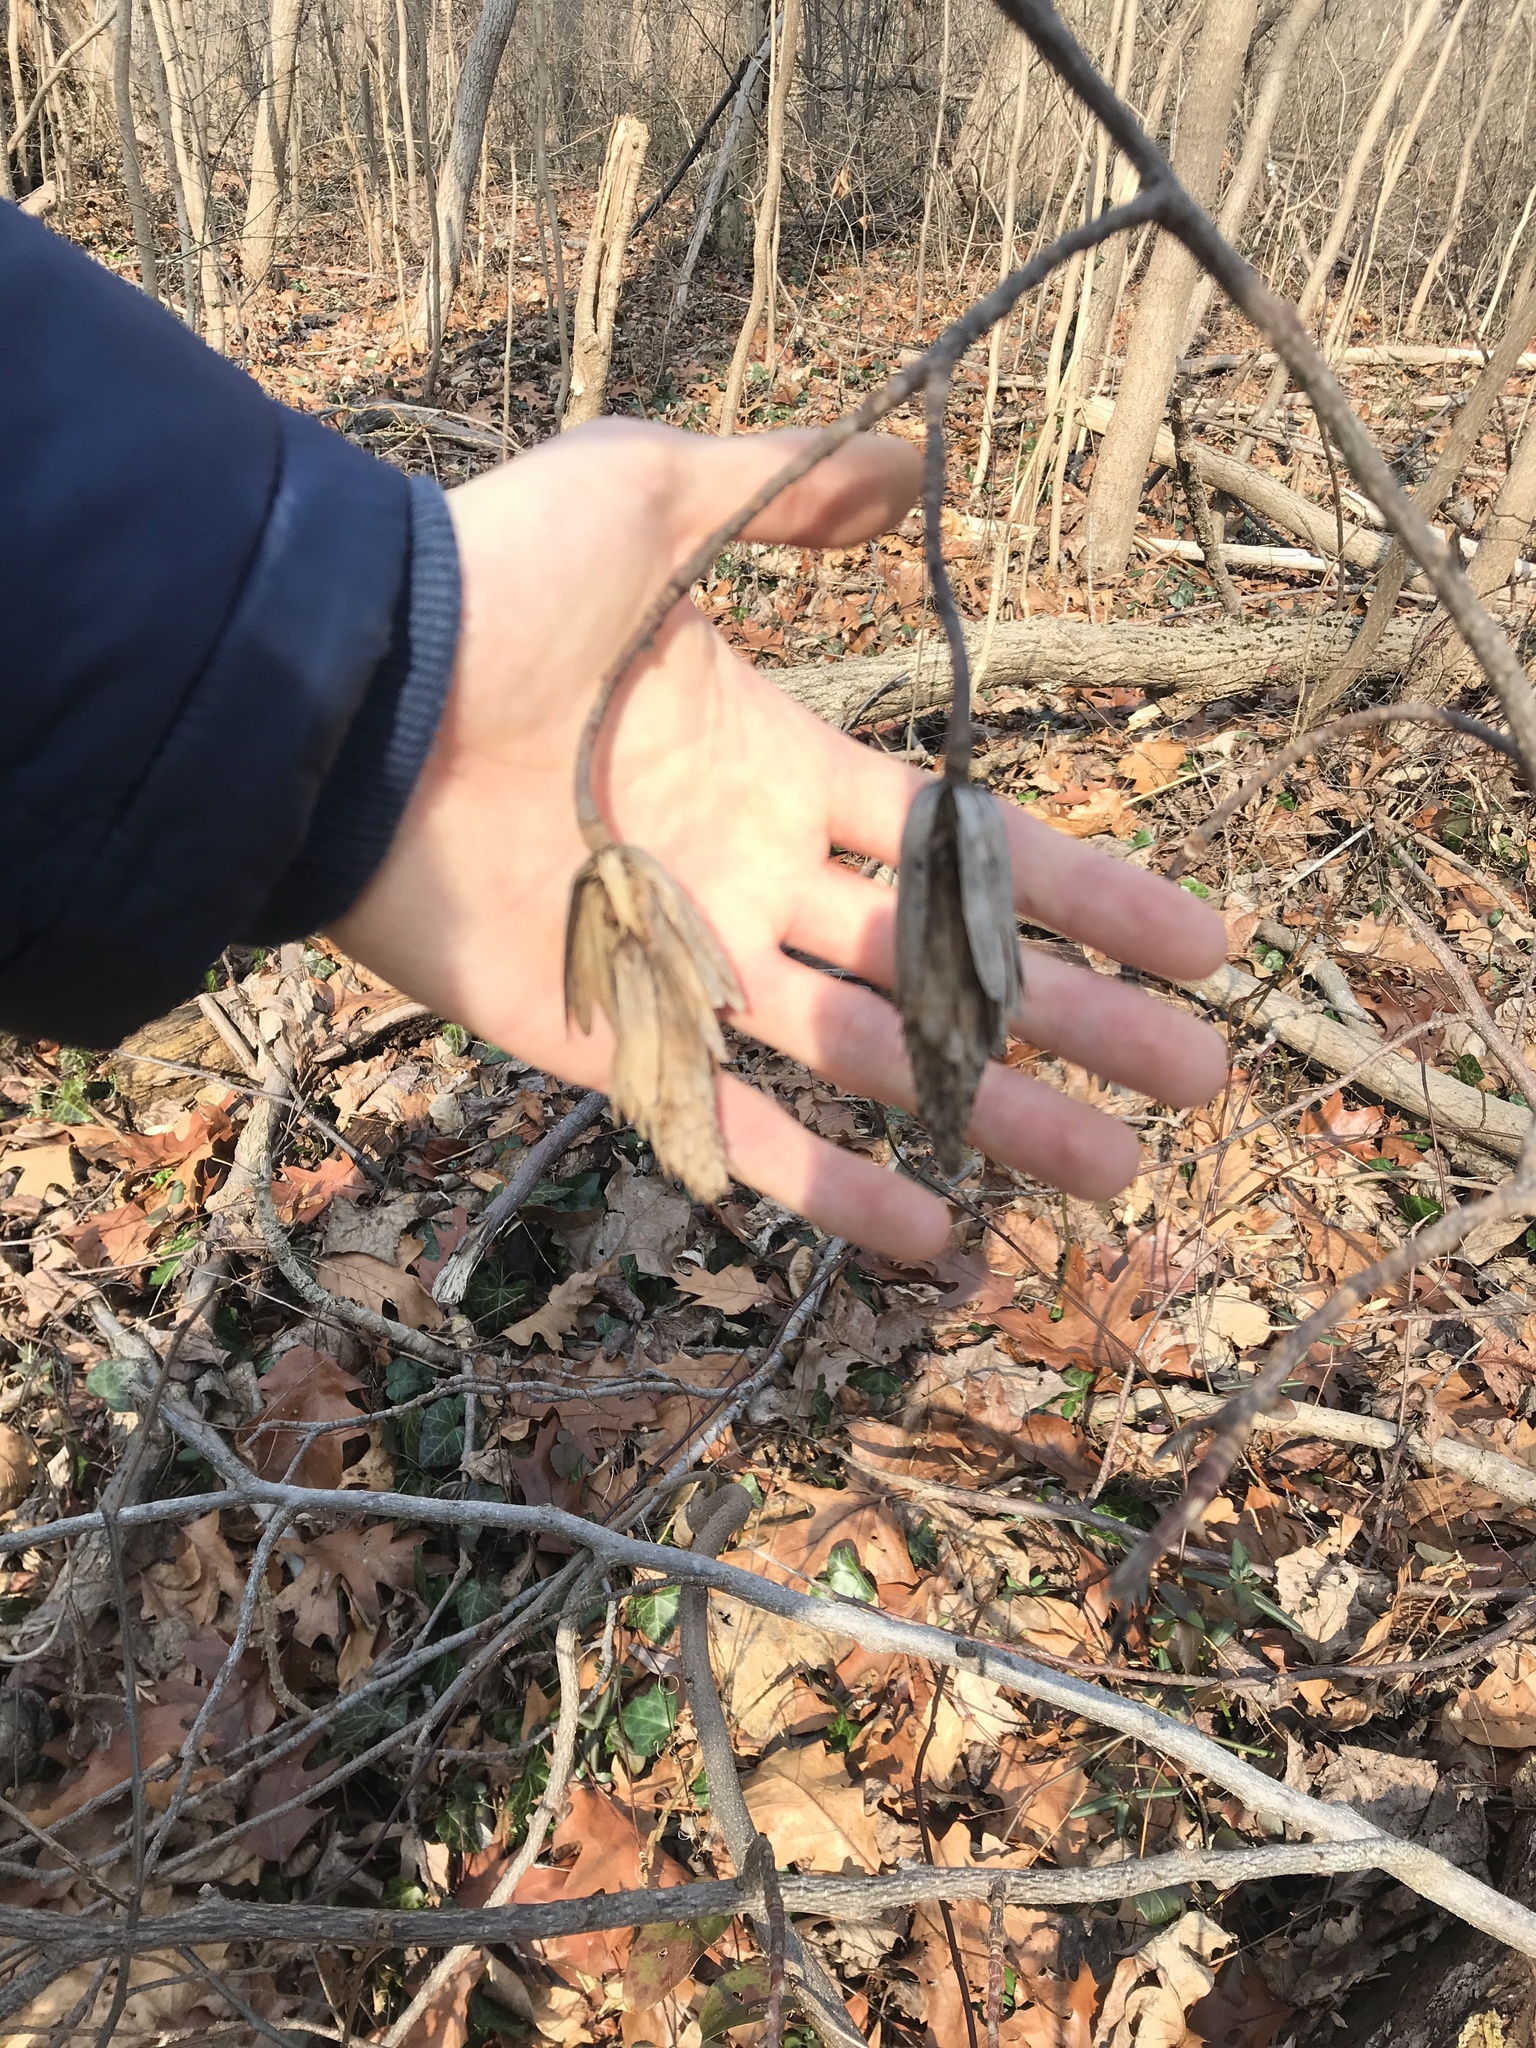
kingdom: Plantae
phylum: Tracheophyta
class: Magnoliopsida
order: Magnoliales
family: Magnoliaceae
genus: Liriodendron
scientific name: Liriodendron tulipifera
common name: Tulip tree
